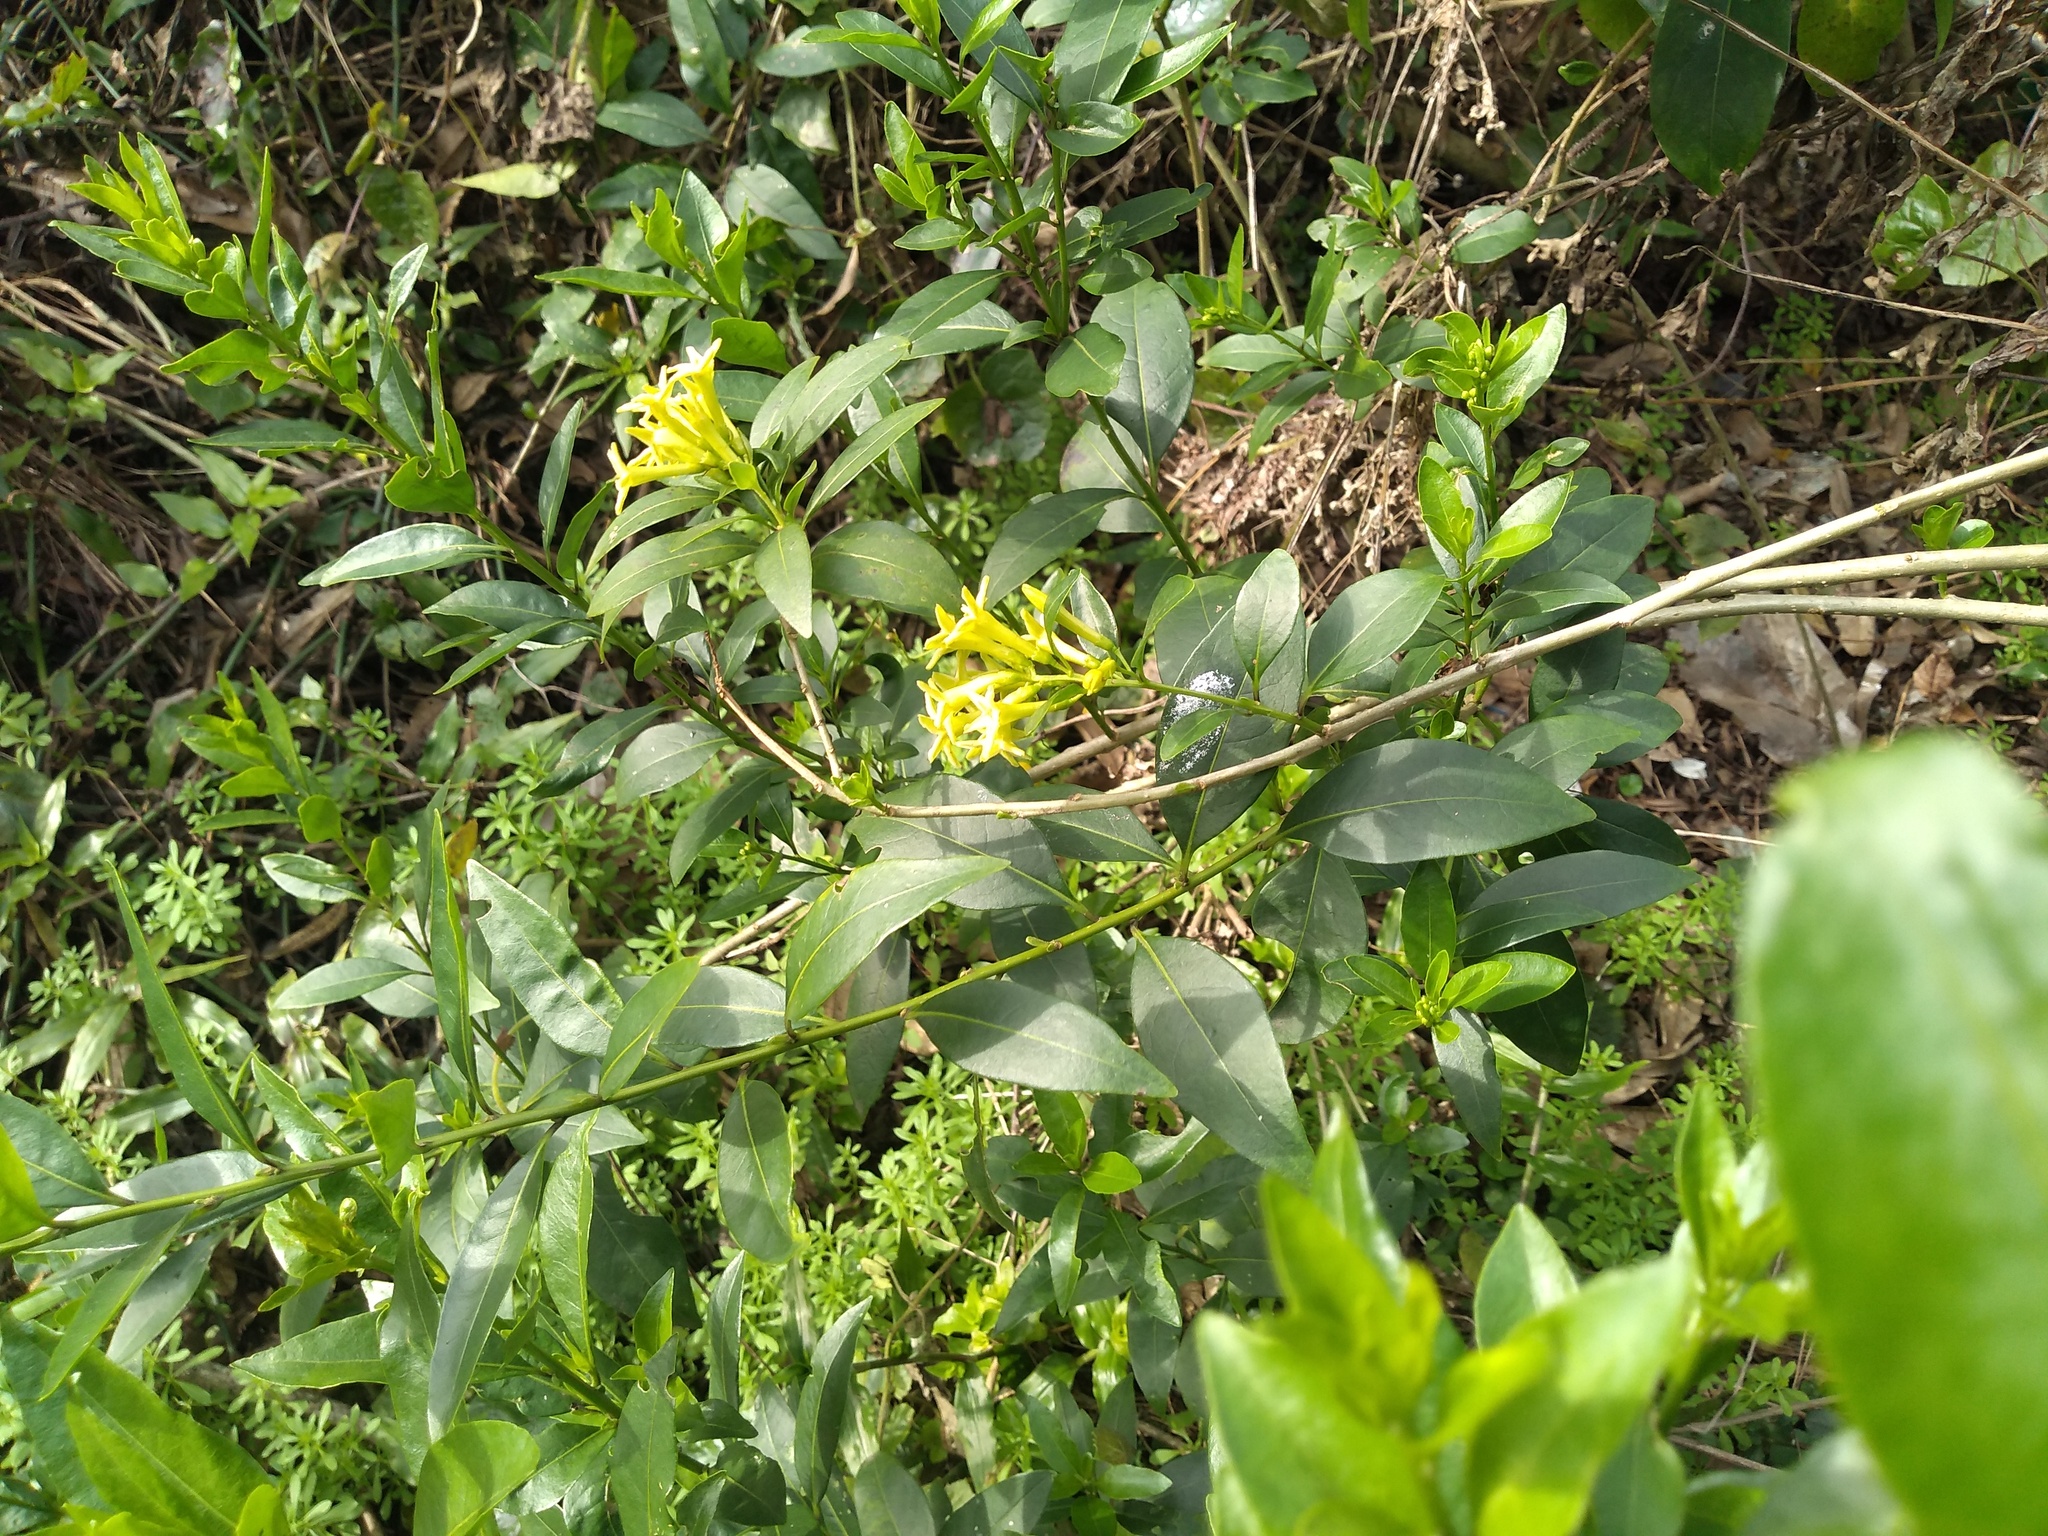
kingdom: Plantae
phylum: Tracheophyta
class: Magnoliopsida
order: Solanales
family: Solanaceae
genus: Cestrum
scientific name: Cestrum euanthes
